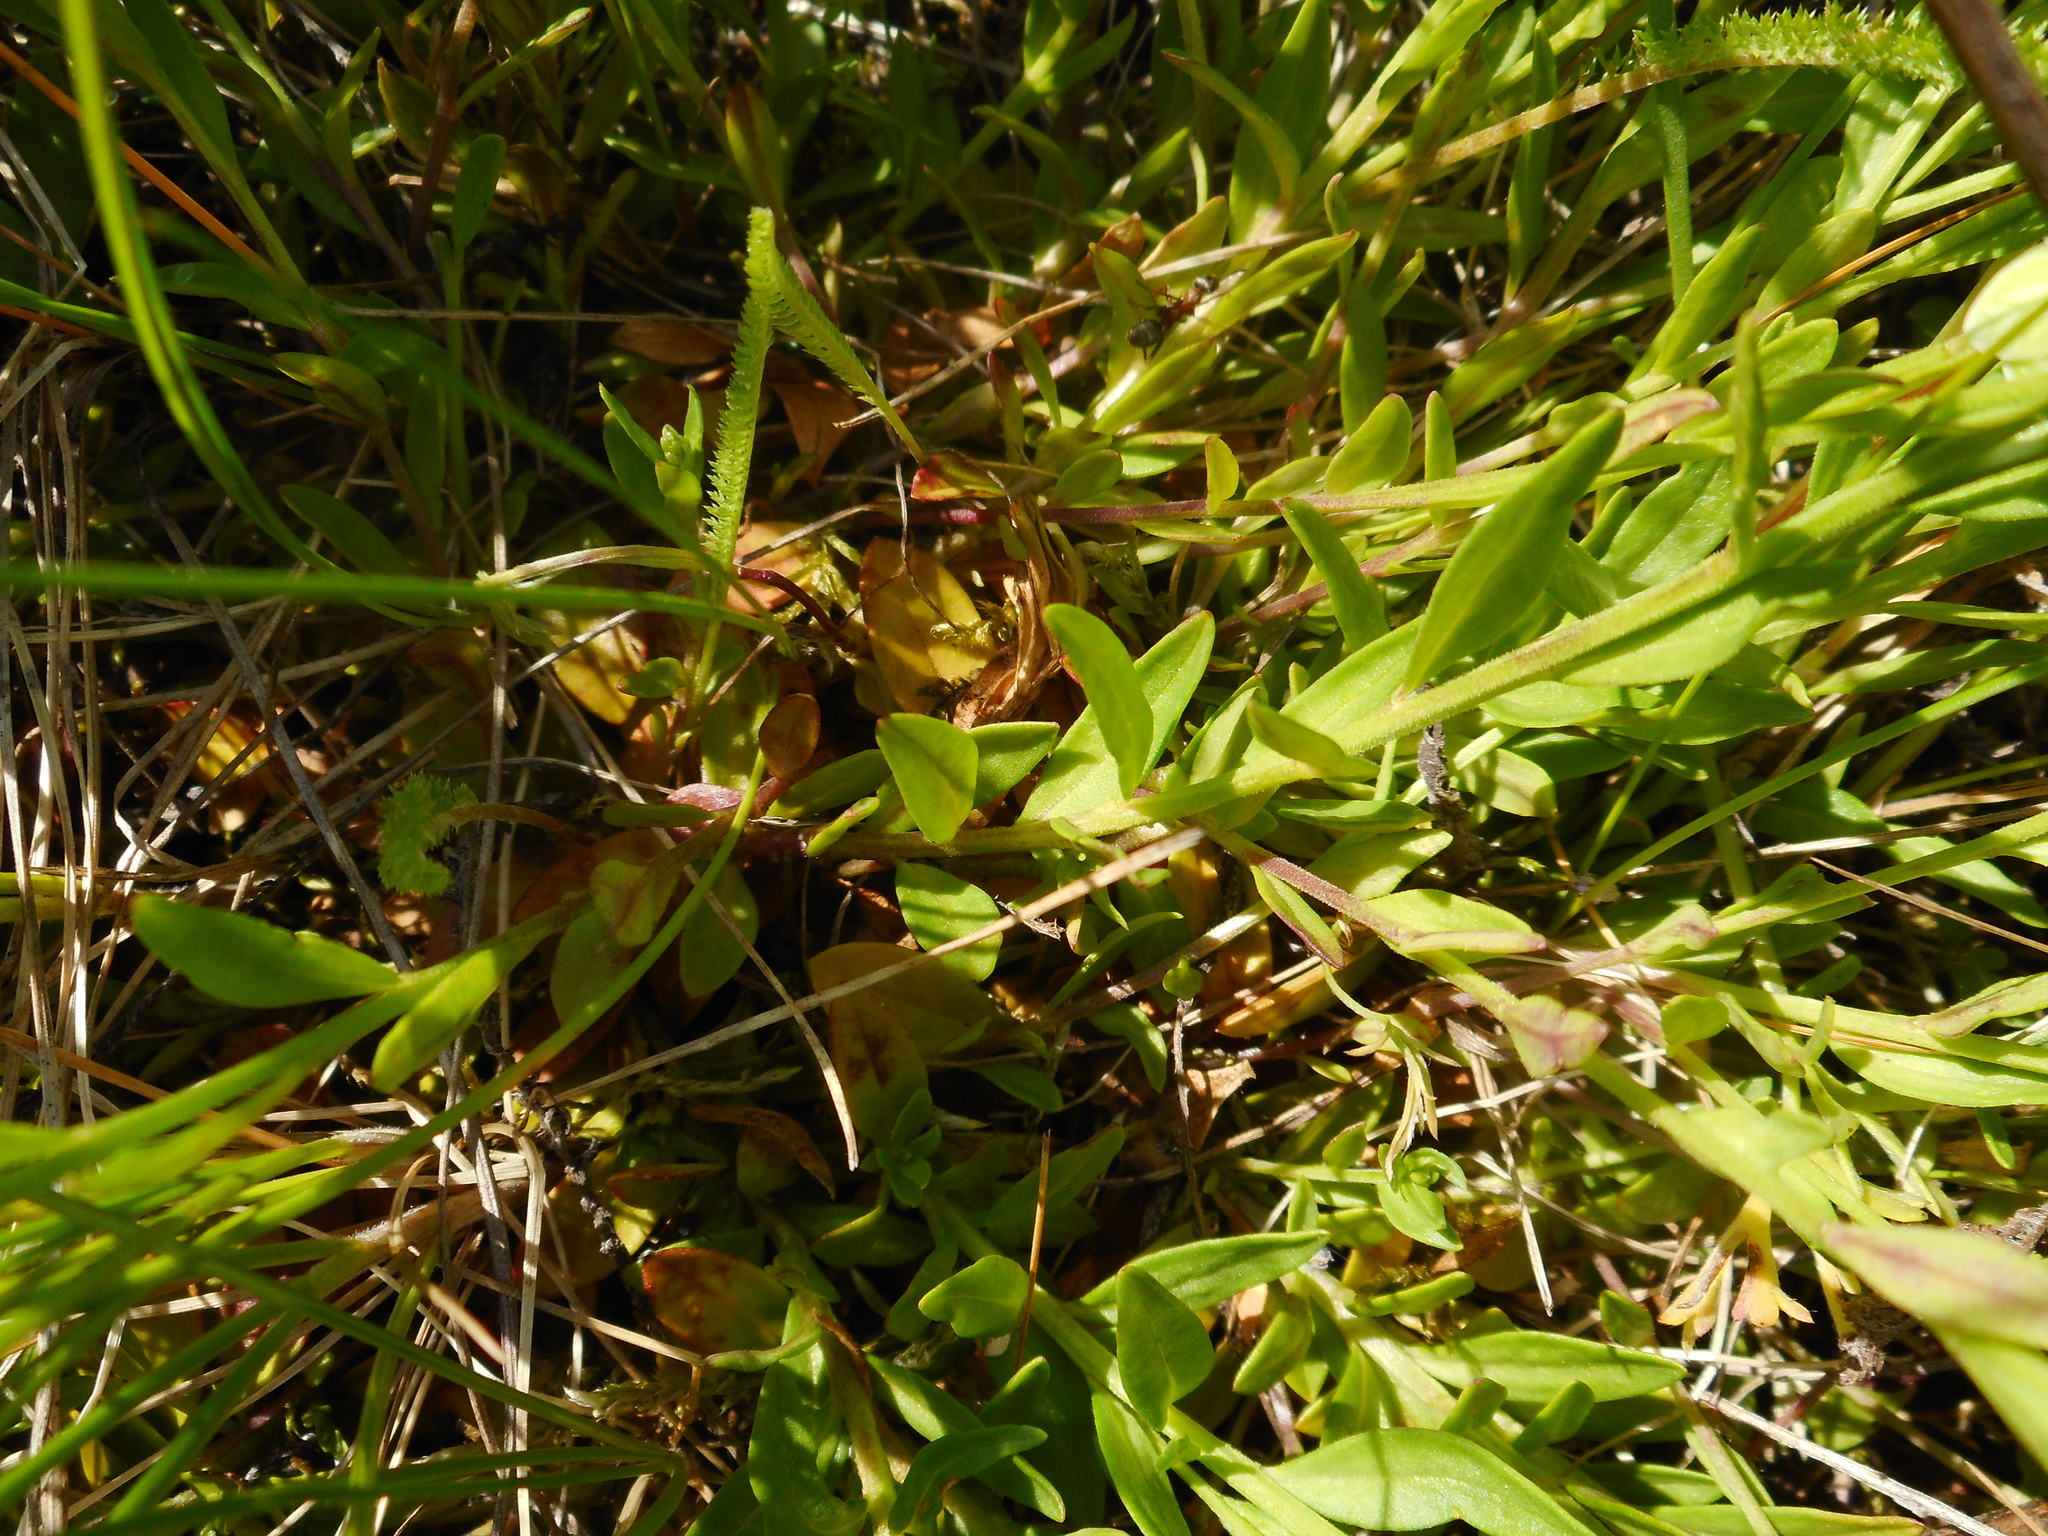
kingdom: Plantae
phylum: Tracheophyta
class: Magnoliopsida
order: Fabales
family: Polygalaceae
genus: Polygala
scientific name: Polygala amarella
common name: Dwarf milkwort
